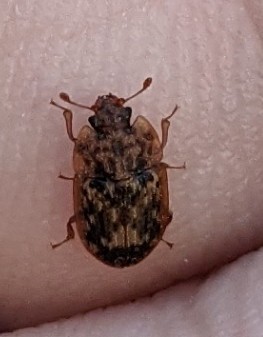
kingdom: Animalia
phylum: Arthropoda
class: Insecta
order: Coleoptera
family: Nitidulidae
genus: Soronia
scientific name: Soronia grisea
